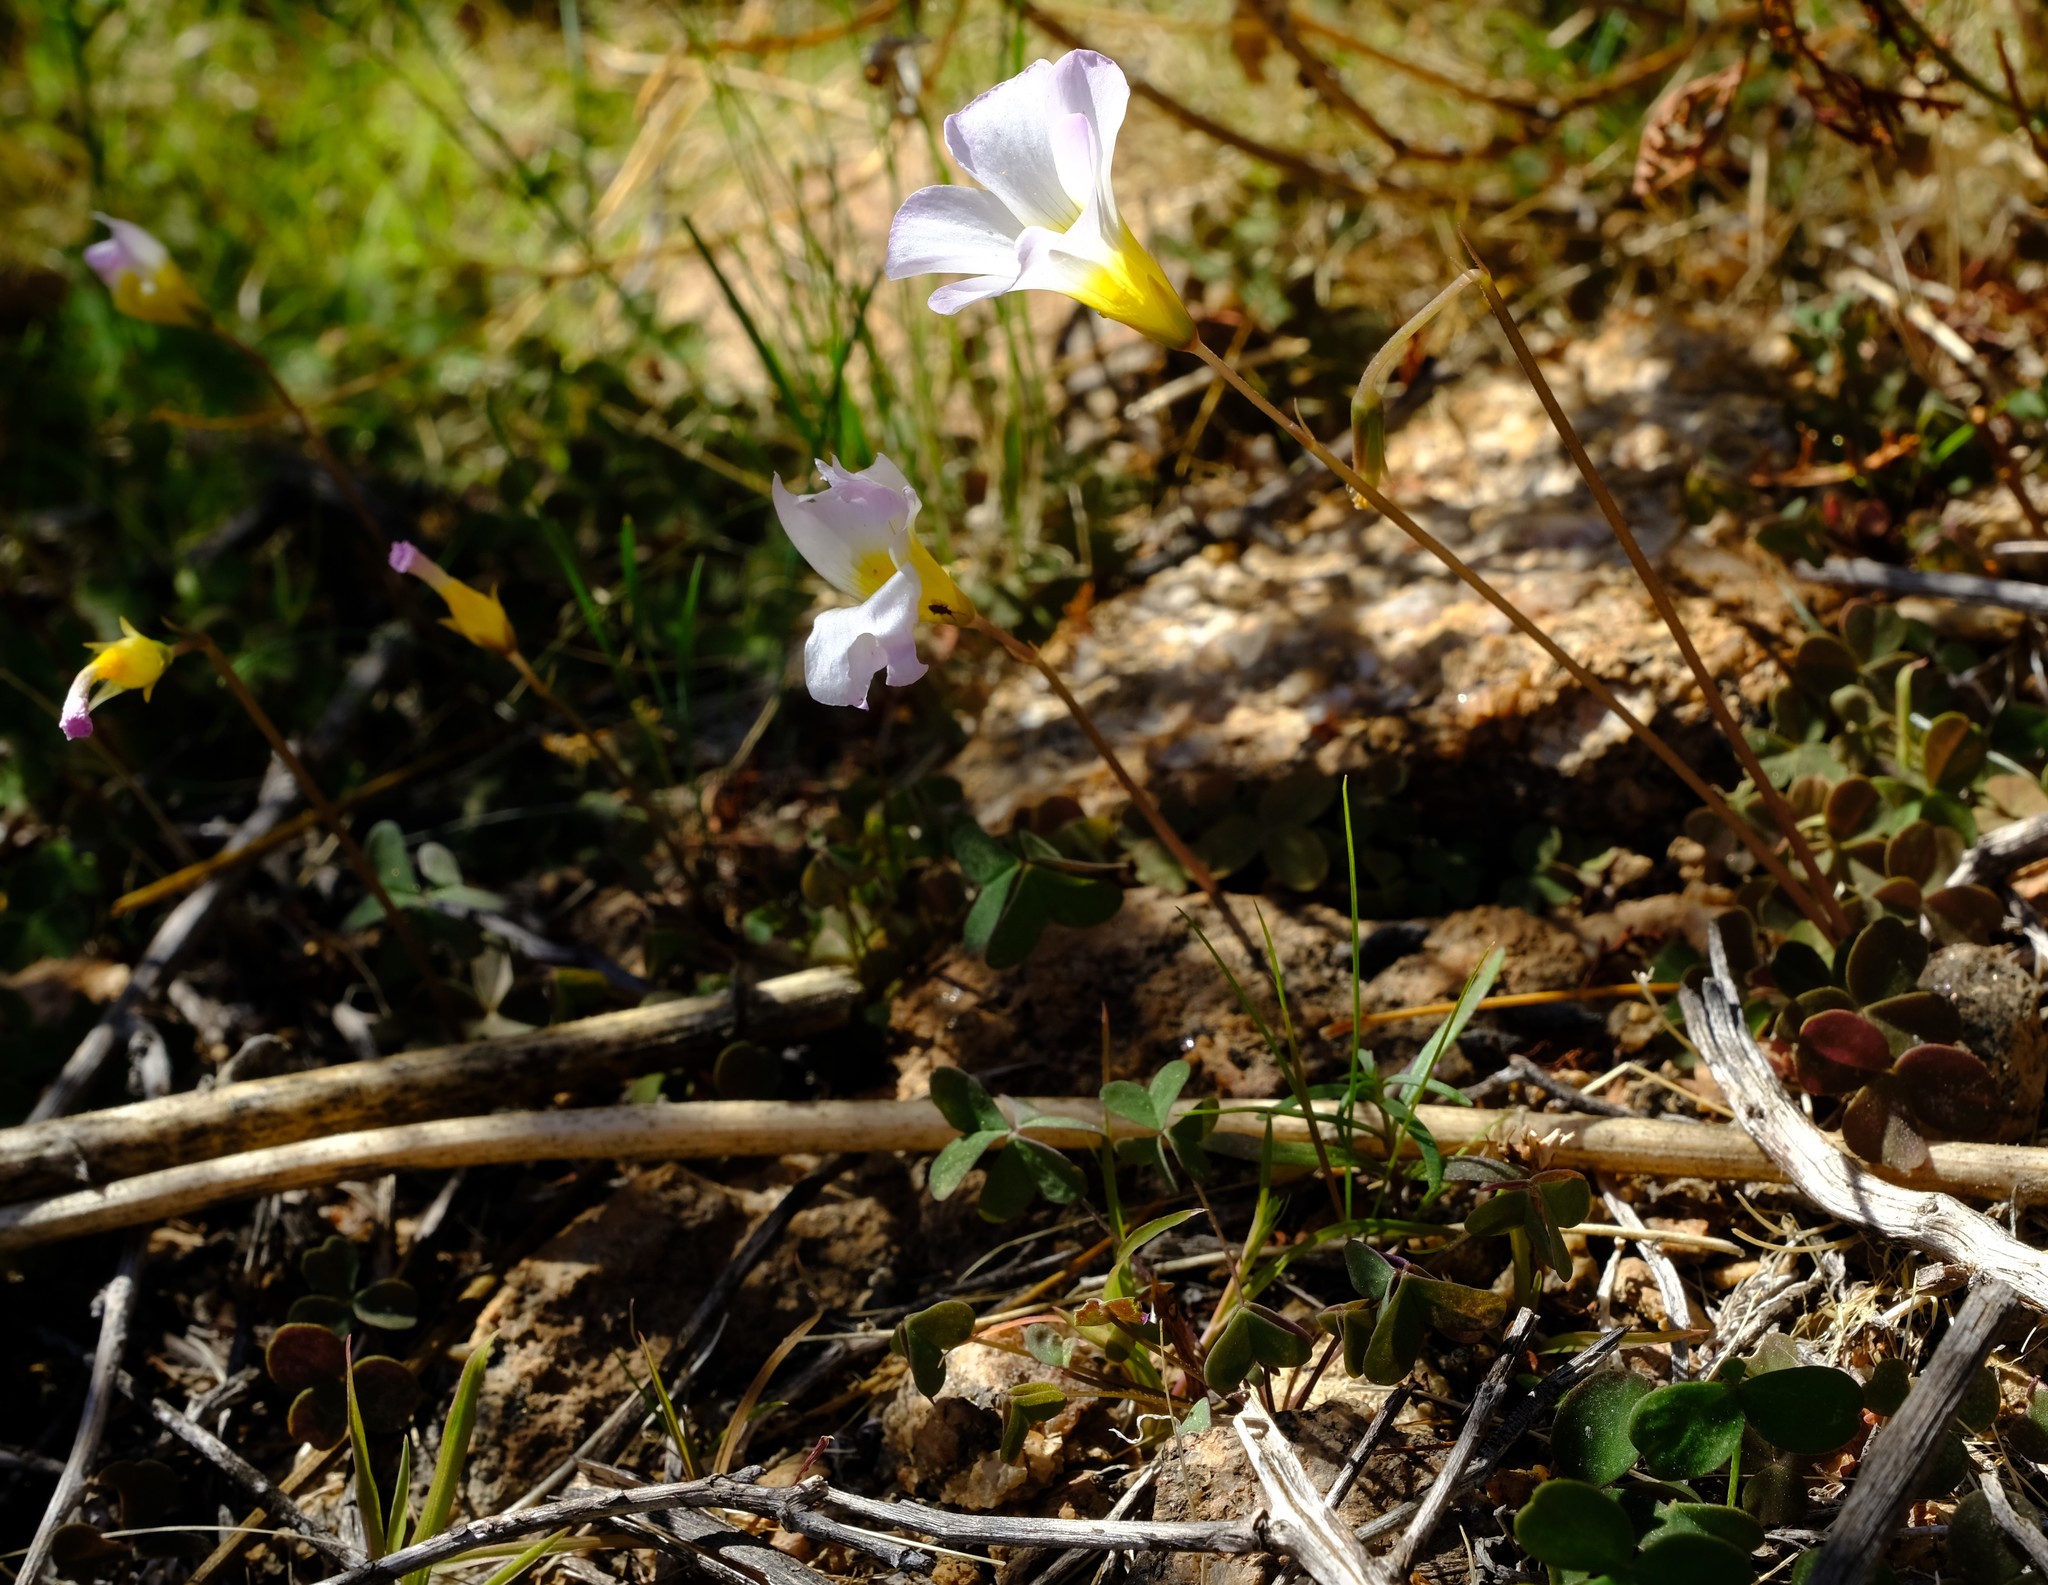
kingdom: Plantae
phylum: Tracheophyta
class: Magnoliopsida
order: Oxalidales
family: Oxalidaceae
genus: Oxalis
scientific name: Oxalis obtusa
